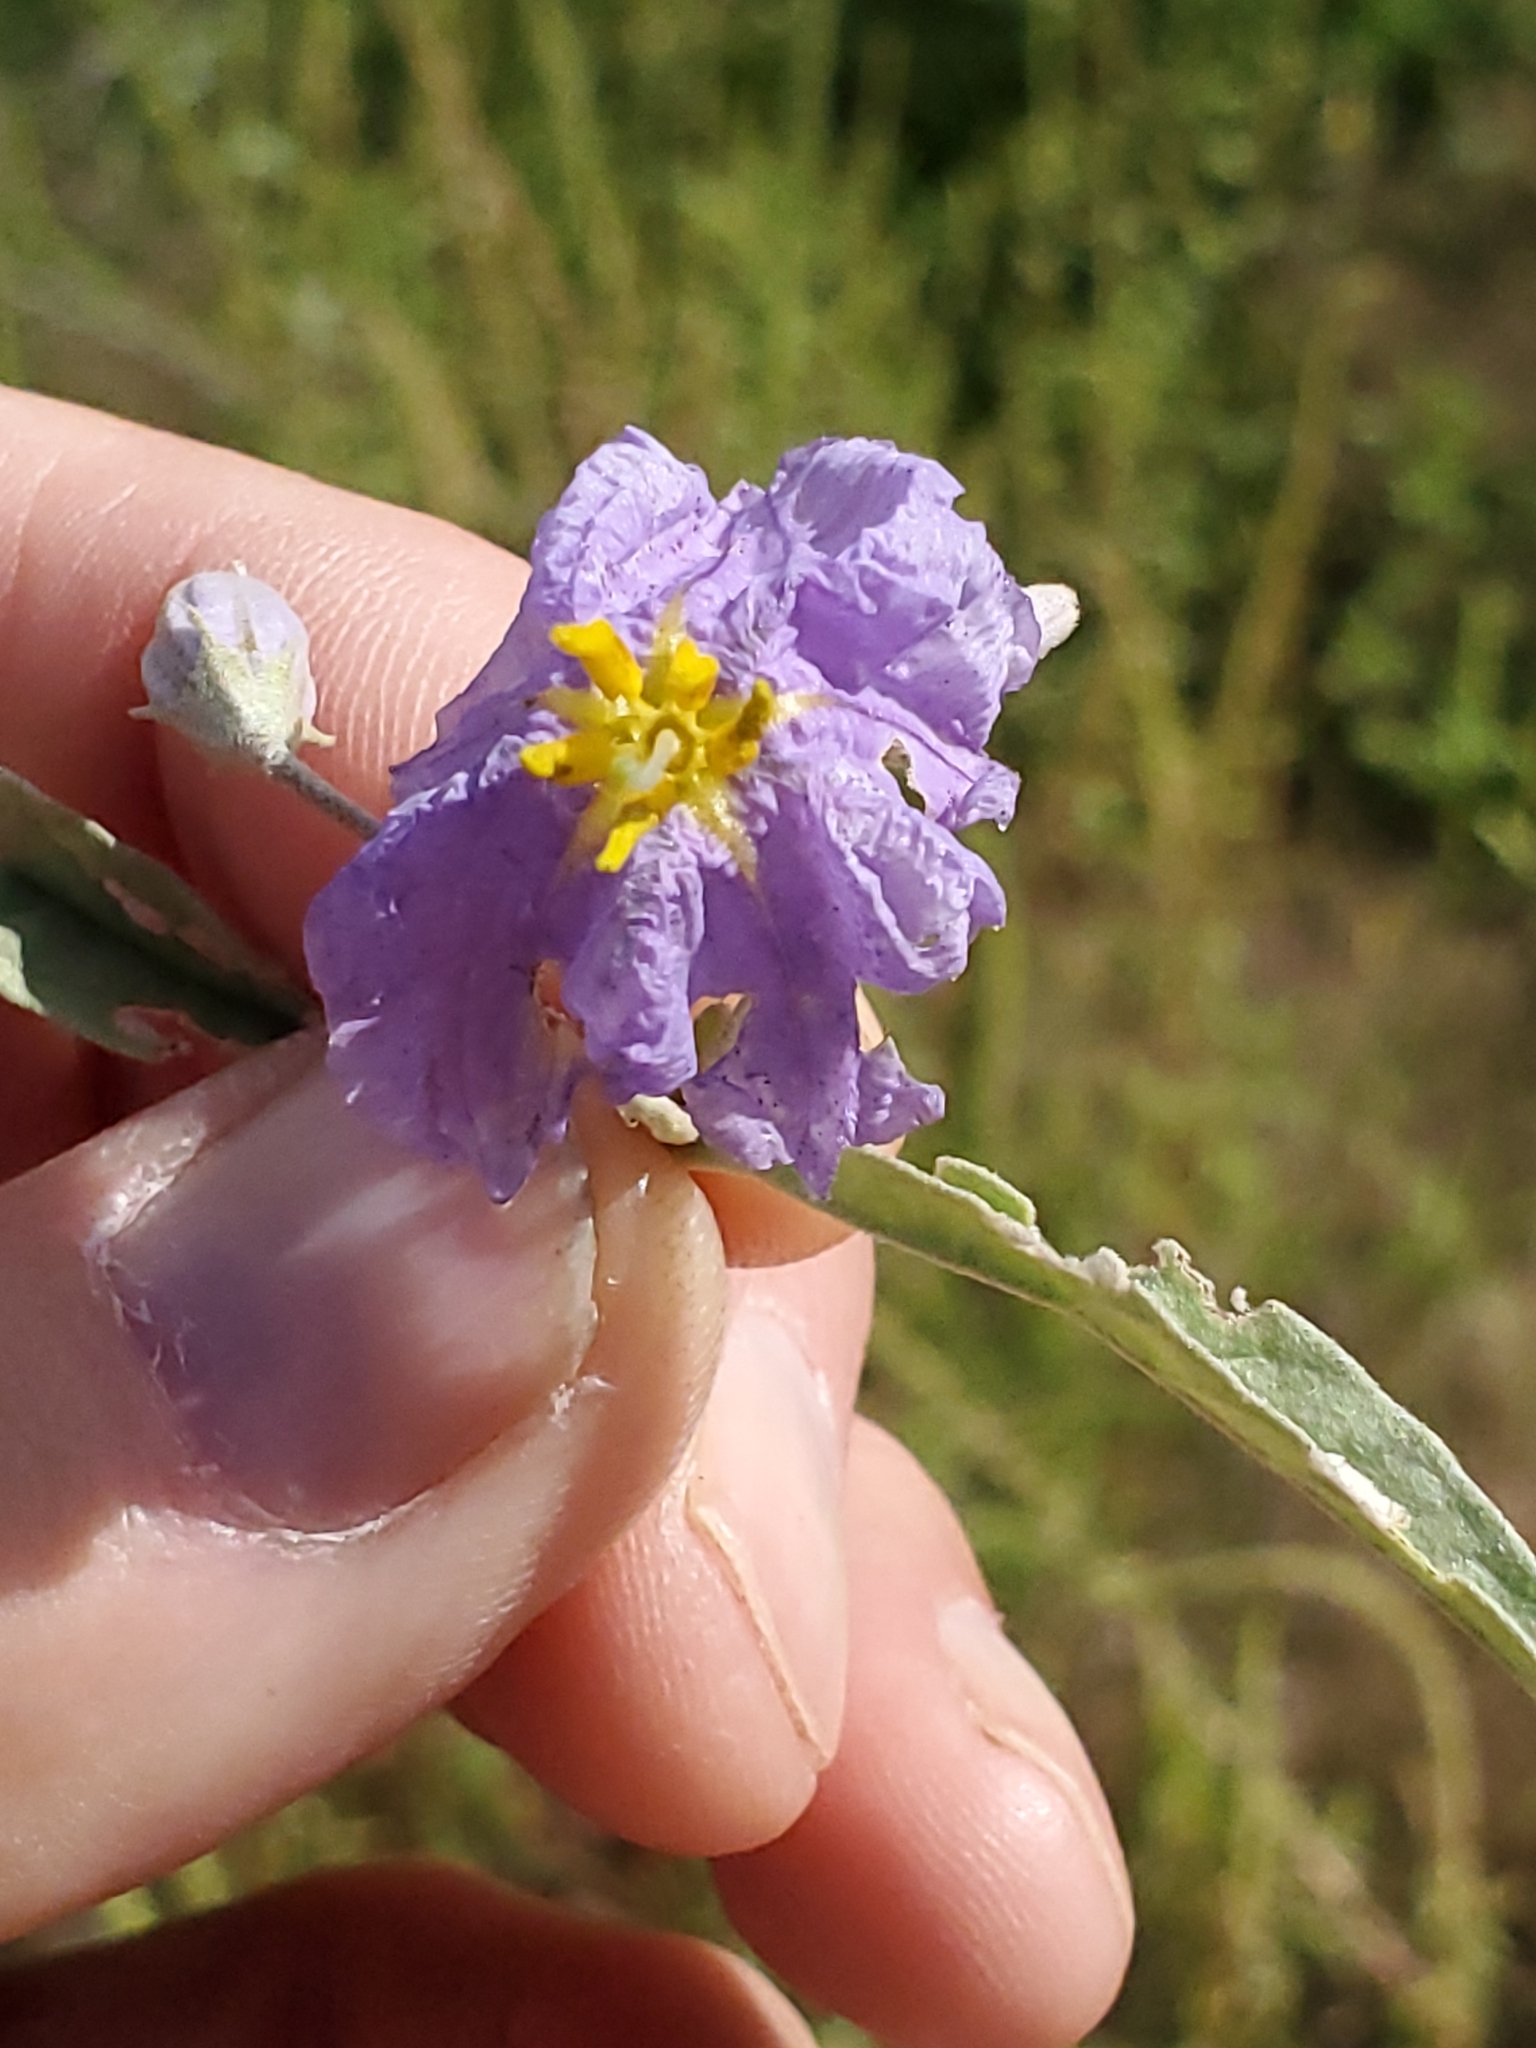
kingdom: Plantae
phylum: Tracheophyta
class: Magnoliopsida
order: Solanales
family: Solanaceae
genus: Solanum
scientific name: Solanum elaeagnifolium
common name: Silverleaf nightshade
